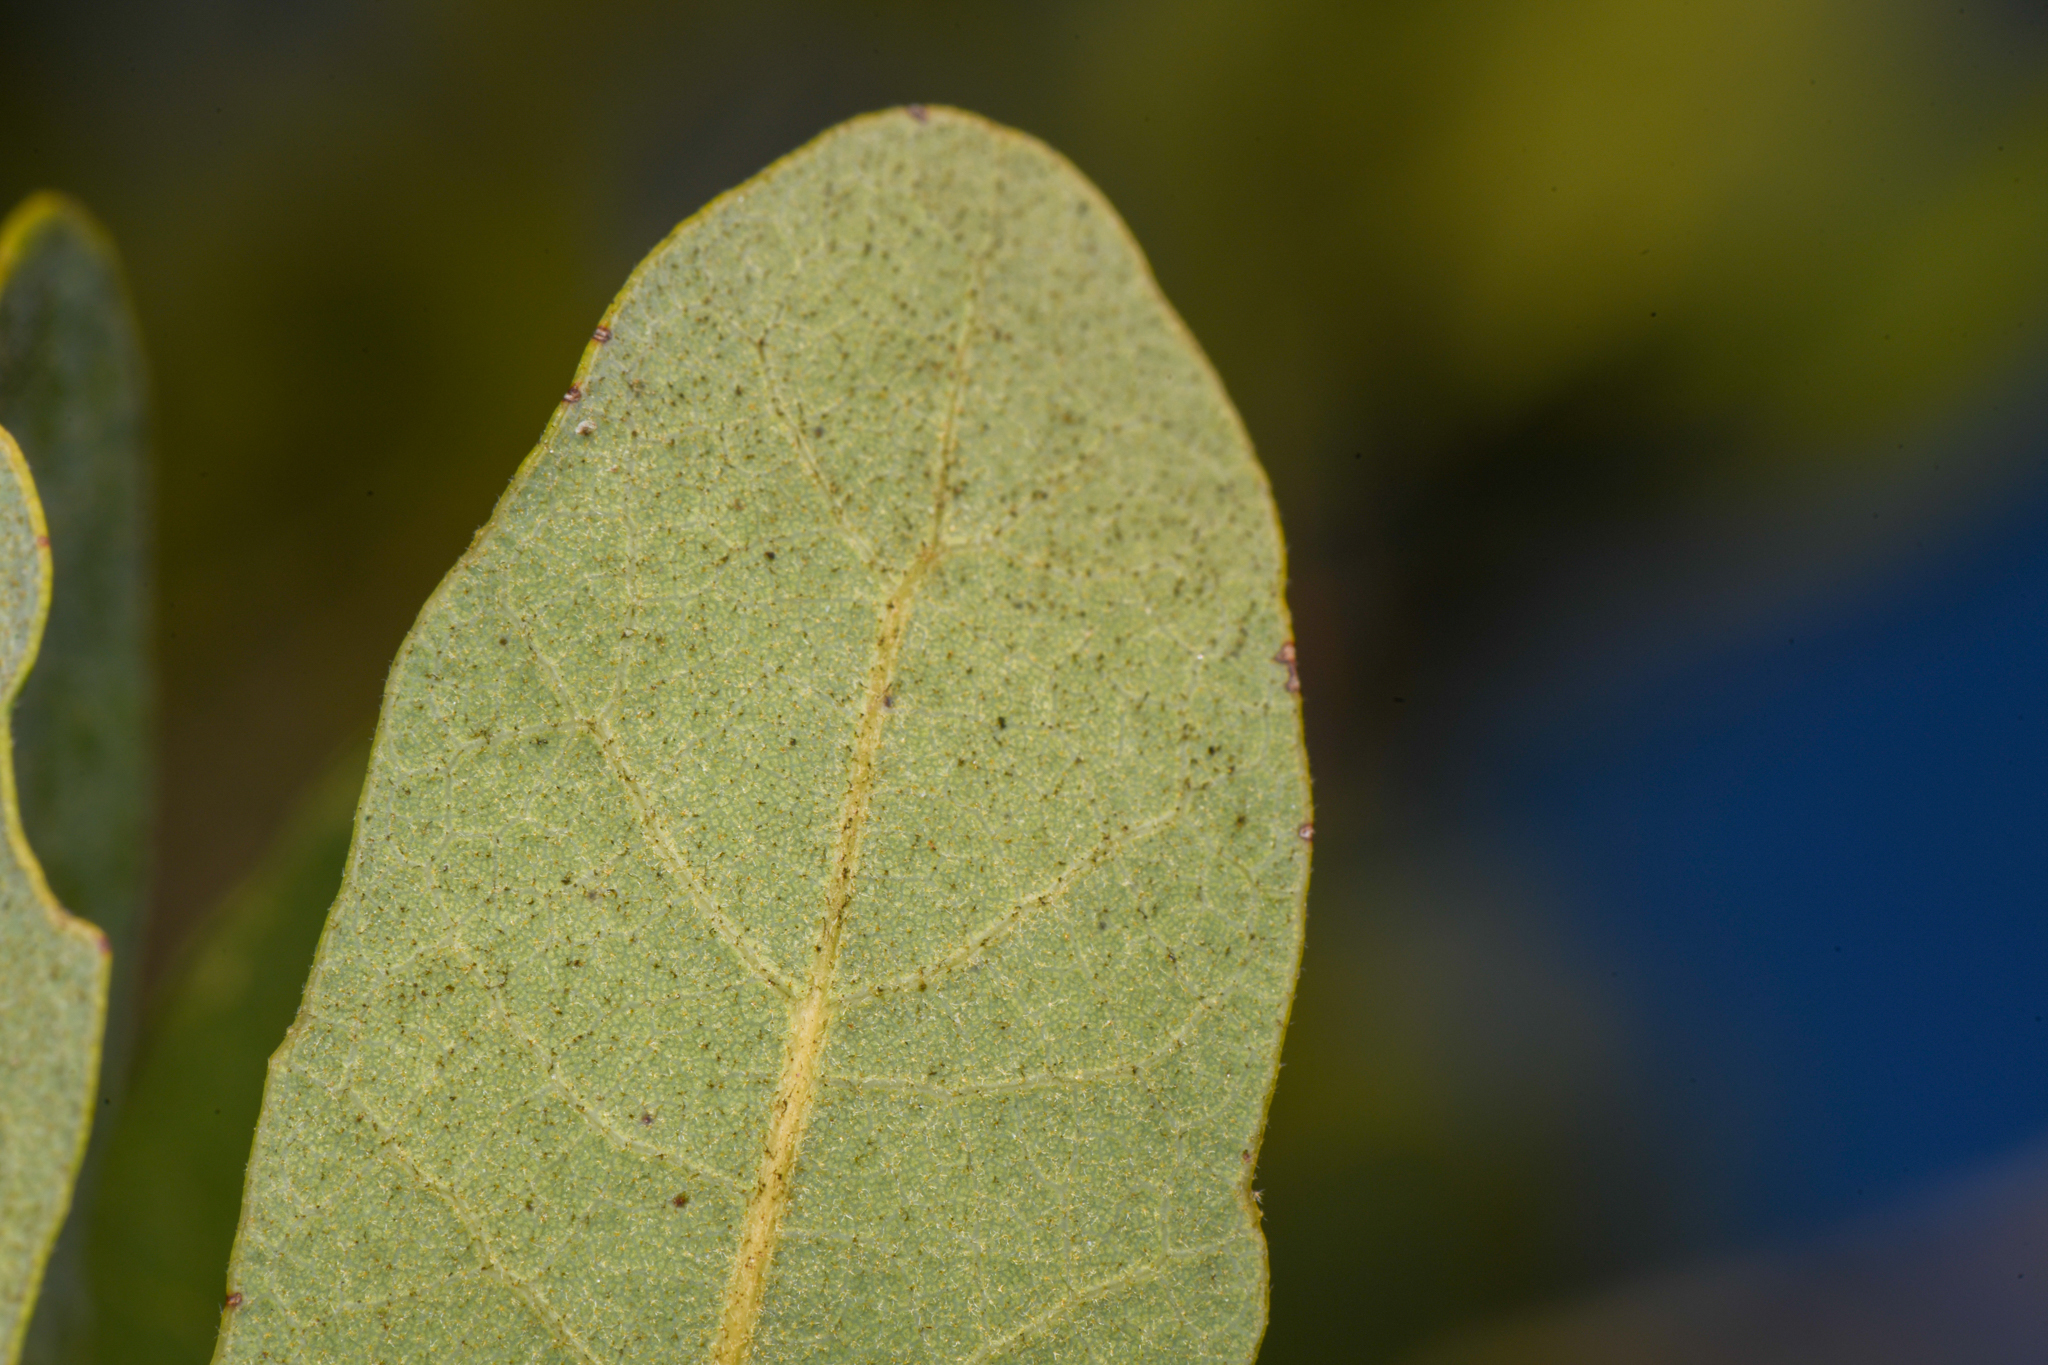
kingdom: Plantae
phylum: Tracheophyta
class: Magnoliopsida
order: Fagales
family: Fagaceae
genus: Quercus
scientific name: Quercus engelmannii
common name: Engelmann oak
